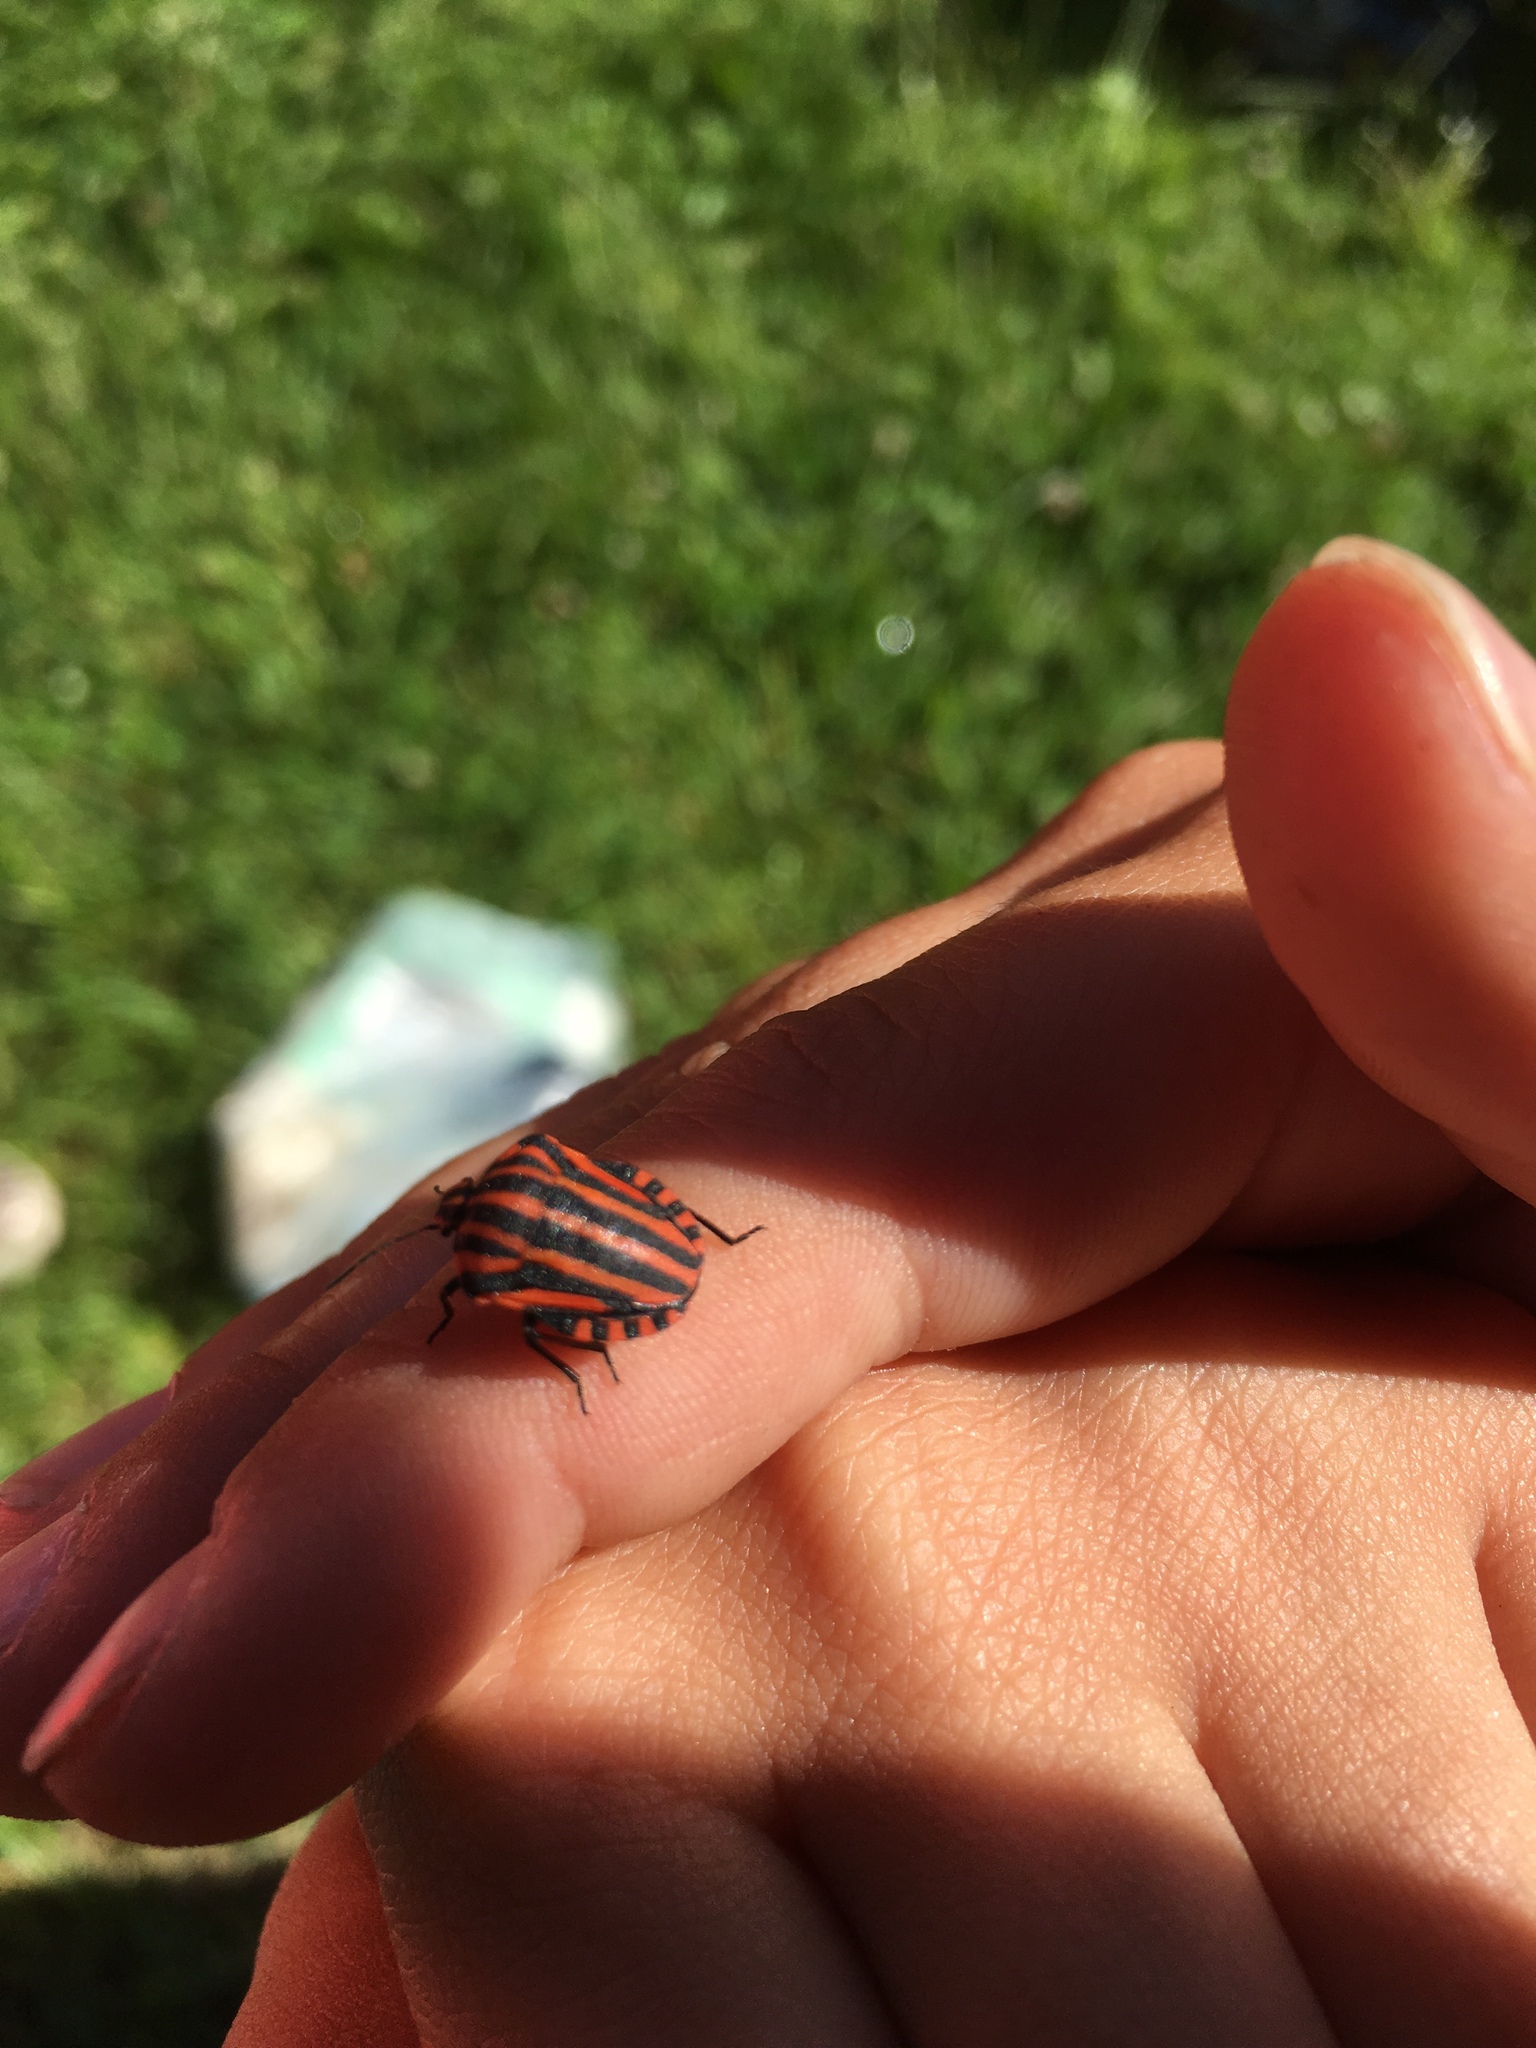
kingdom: Animalia
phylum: Arthropoda
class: Insecta
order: Hemiptera
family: Pentatomidae
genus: Graphosoma
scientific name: Graphosoma italicum
